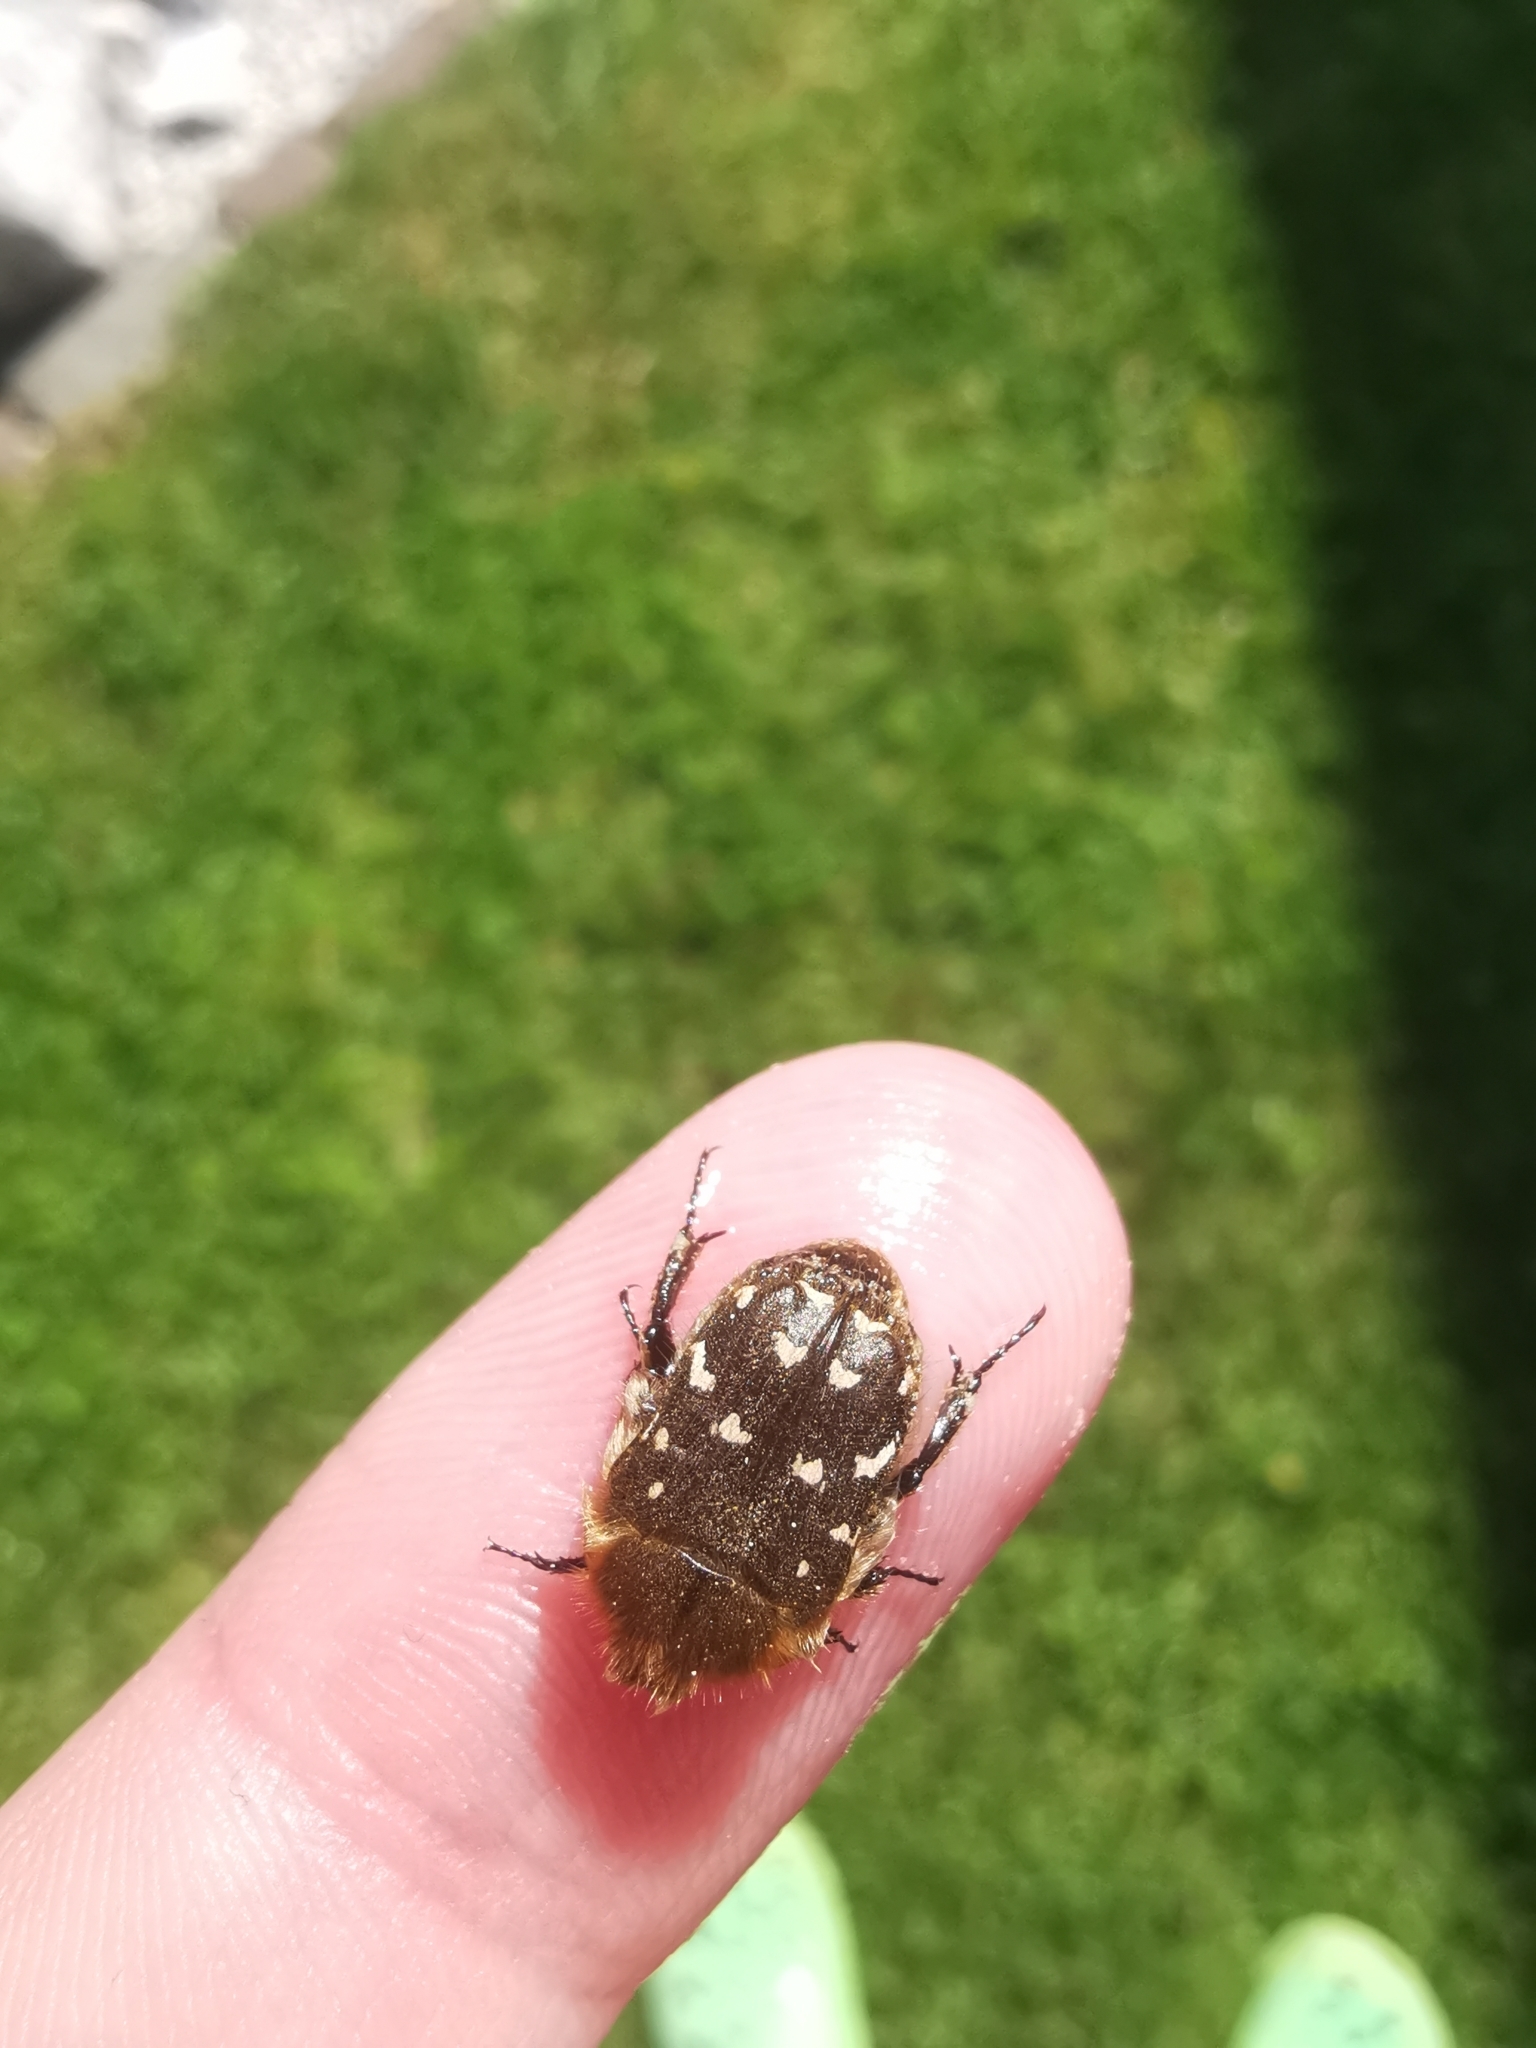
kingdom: Animalia
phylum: Arthropoda
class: Insecta
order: Coleoptera
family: Scarabaeidae
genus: Tropinota
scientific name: Tropinota hirta
